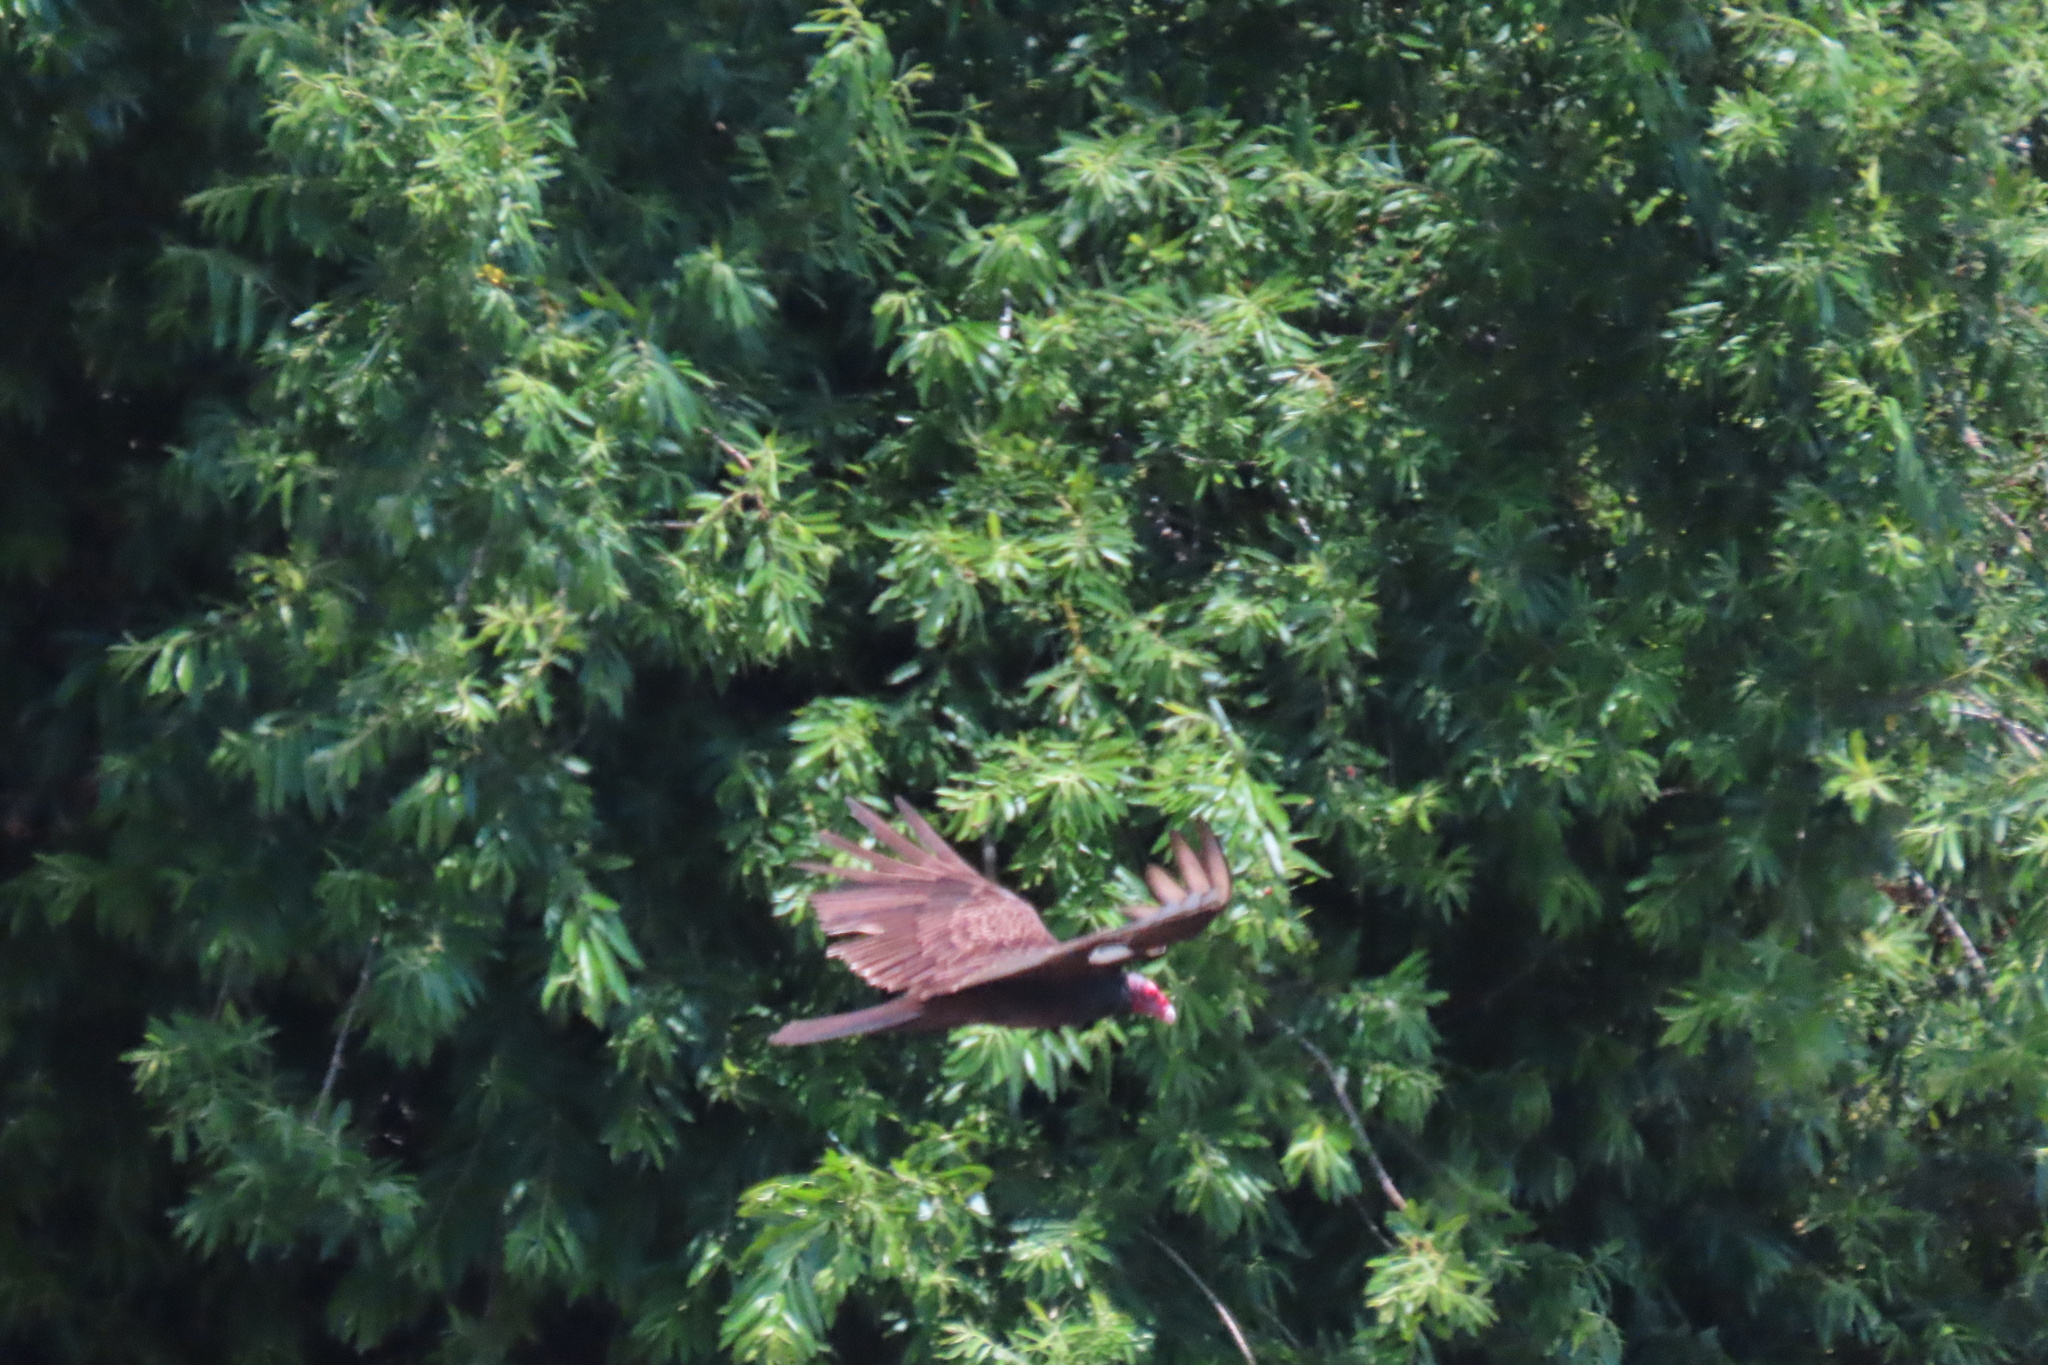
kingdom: Animalia
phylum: Chordata
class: Aves
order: Accipitriformes
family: Cathartidae
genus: Cathartes
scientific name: Cathartes aura
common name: Turkey vulture
